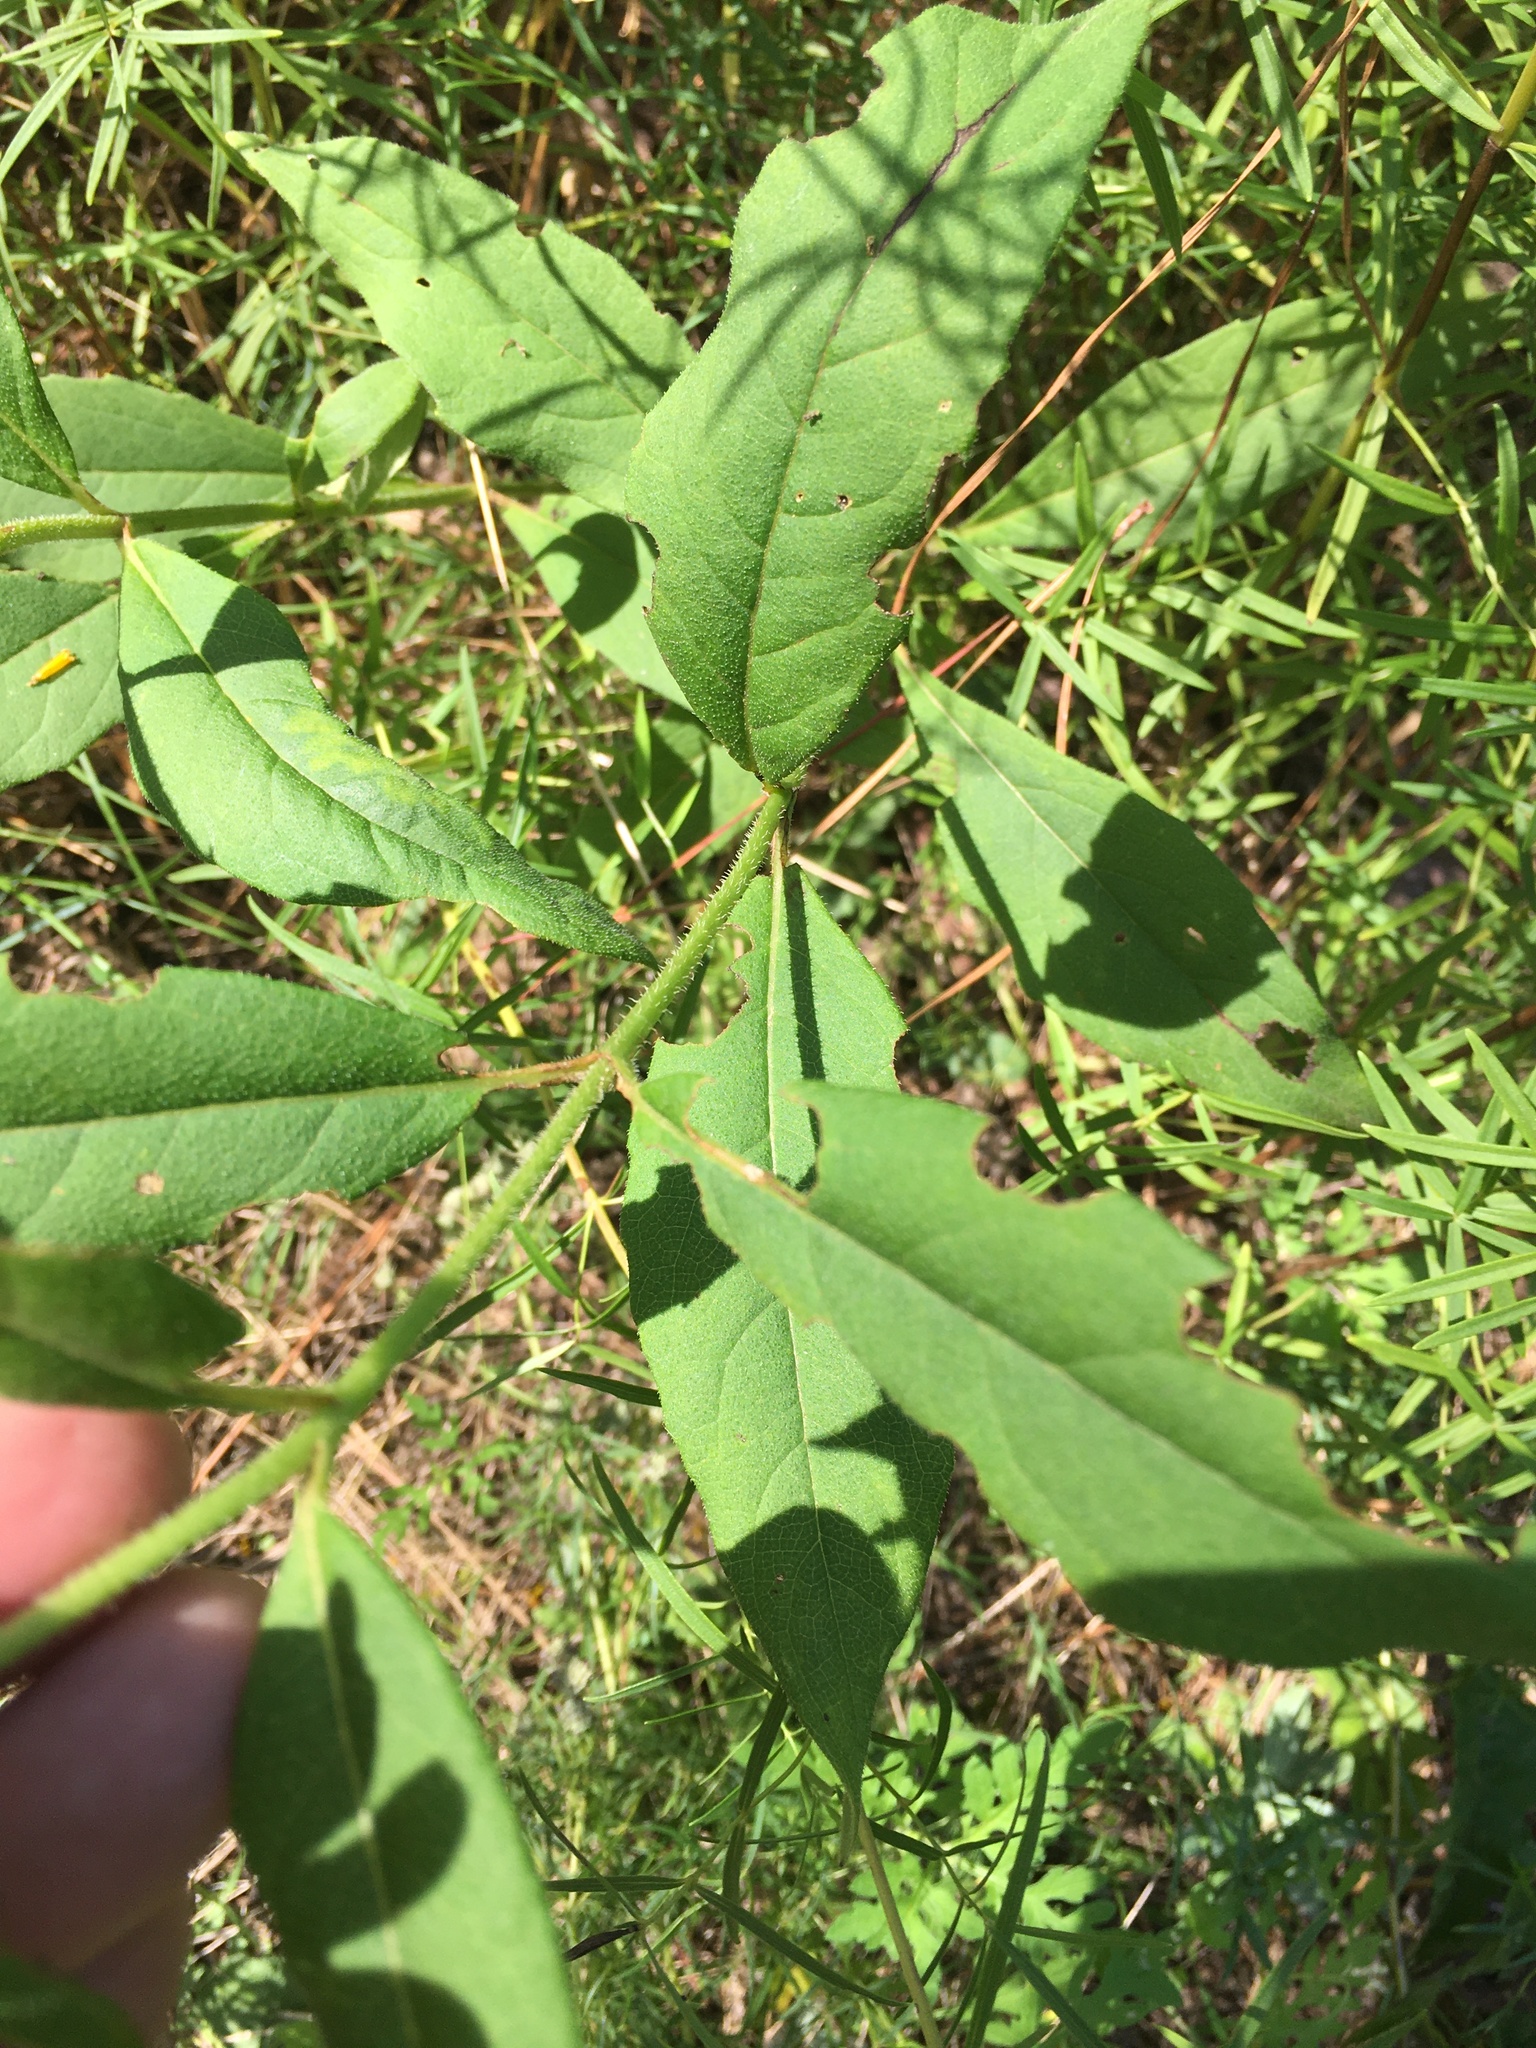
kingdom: Plantae
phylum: Tracheophyta
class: Magnoliopsida
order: Asterales
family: Asteraceae
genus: Silphium
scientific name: Silphium asteriscus
